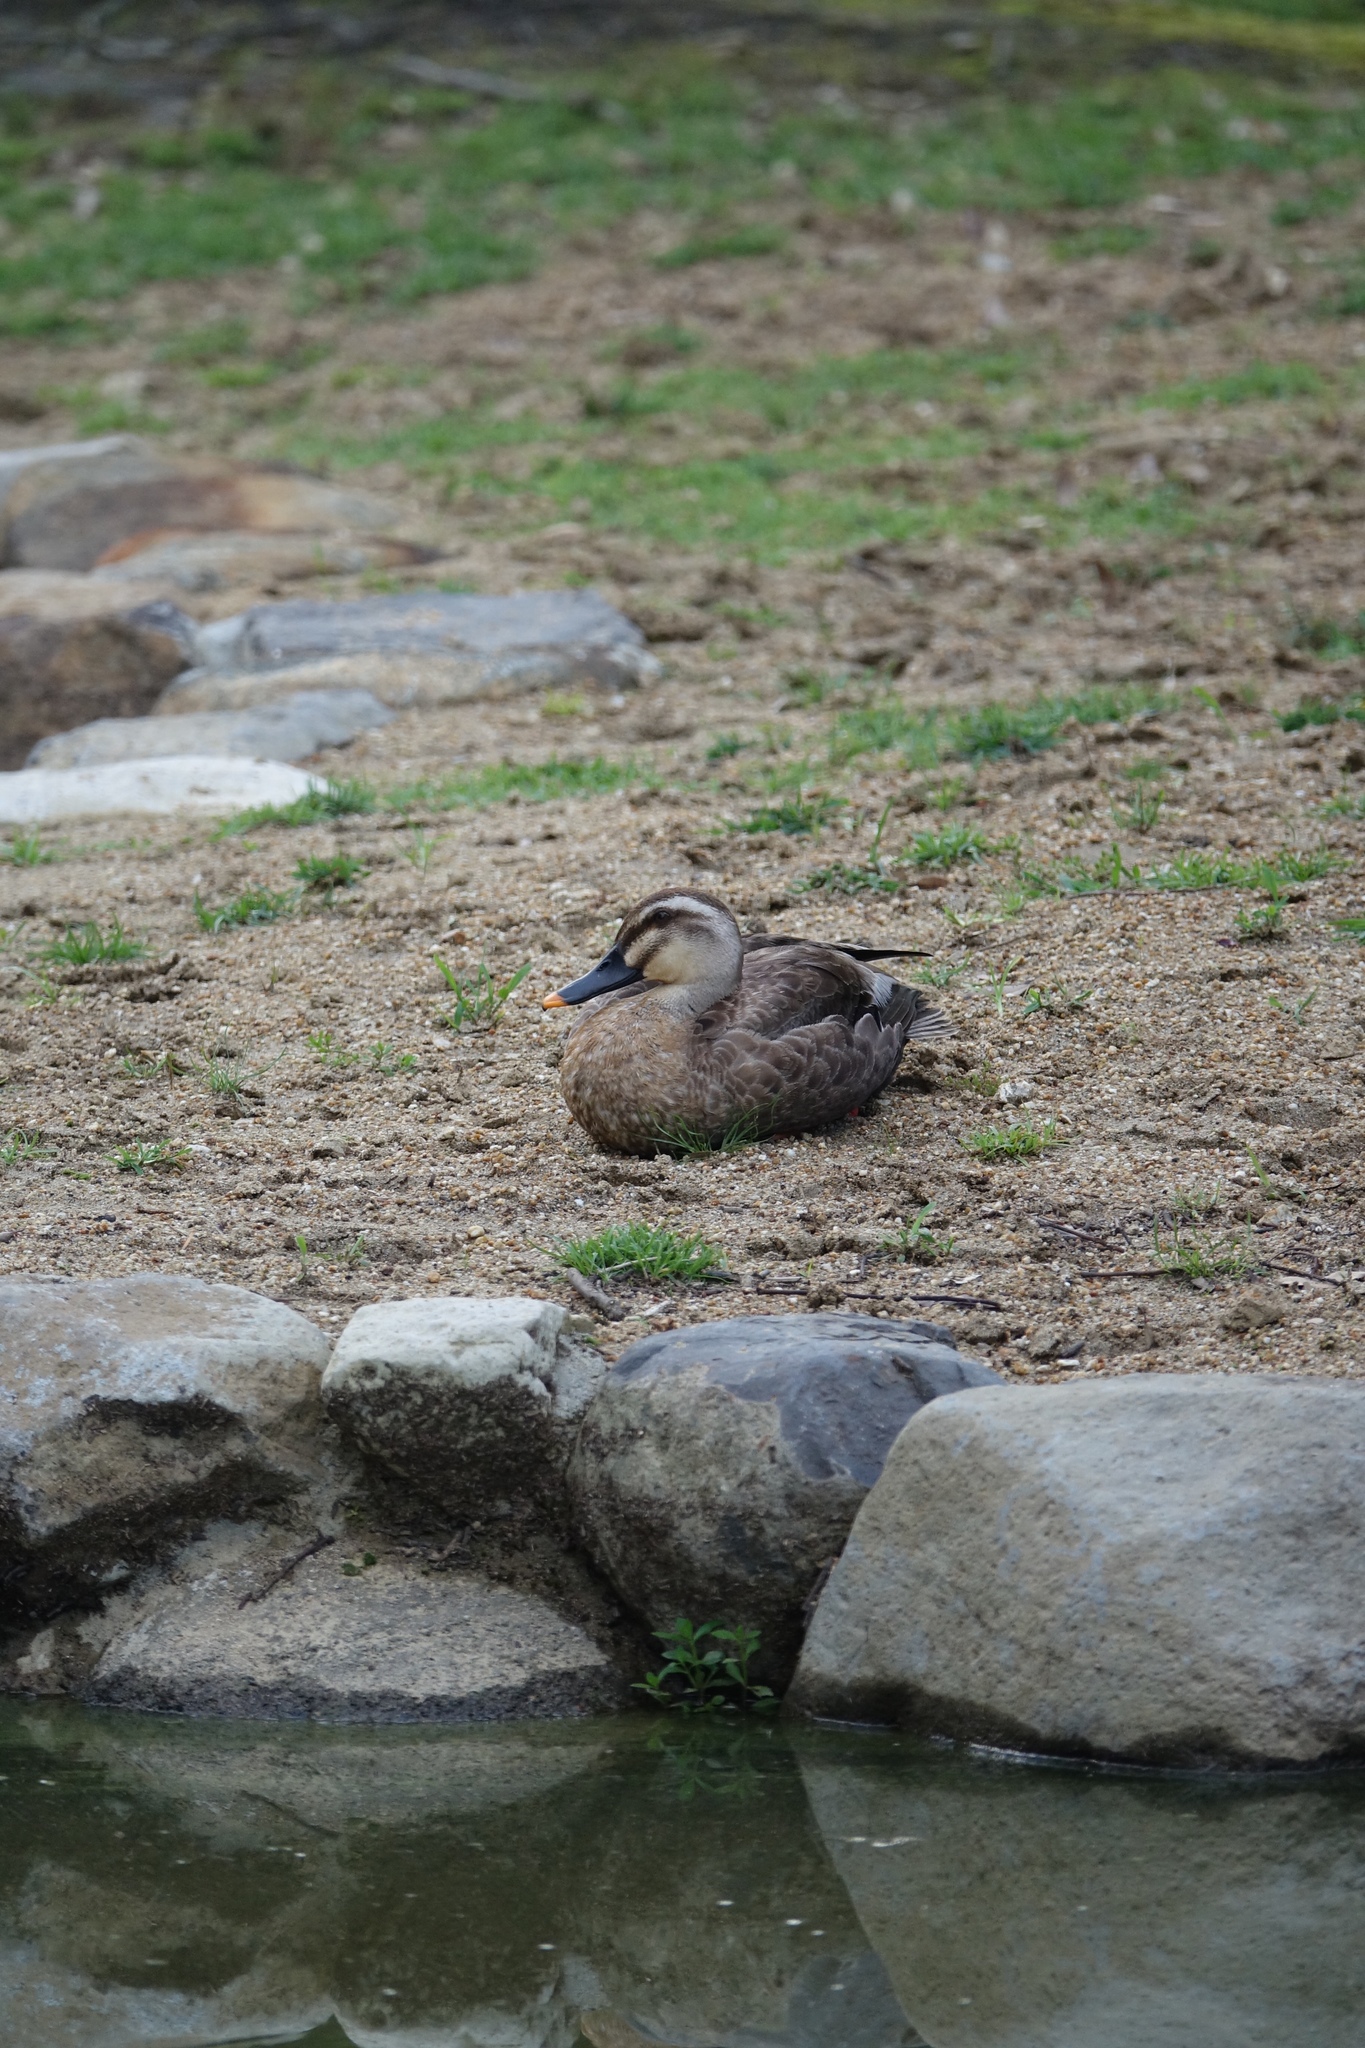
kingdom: Animalia
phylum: Chordata
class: Aves
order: Anseriformes
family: Anatidae
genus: Anas
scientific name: Anas zonorhyncha
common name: Eastern spot-billed duck
